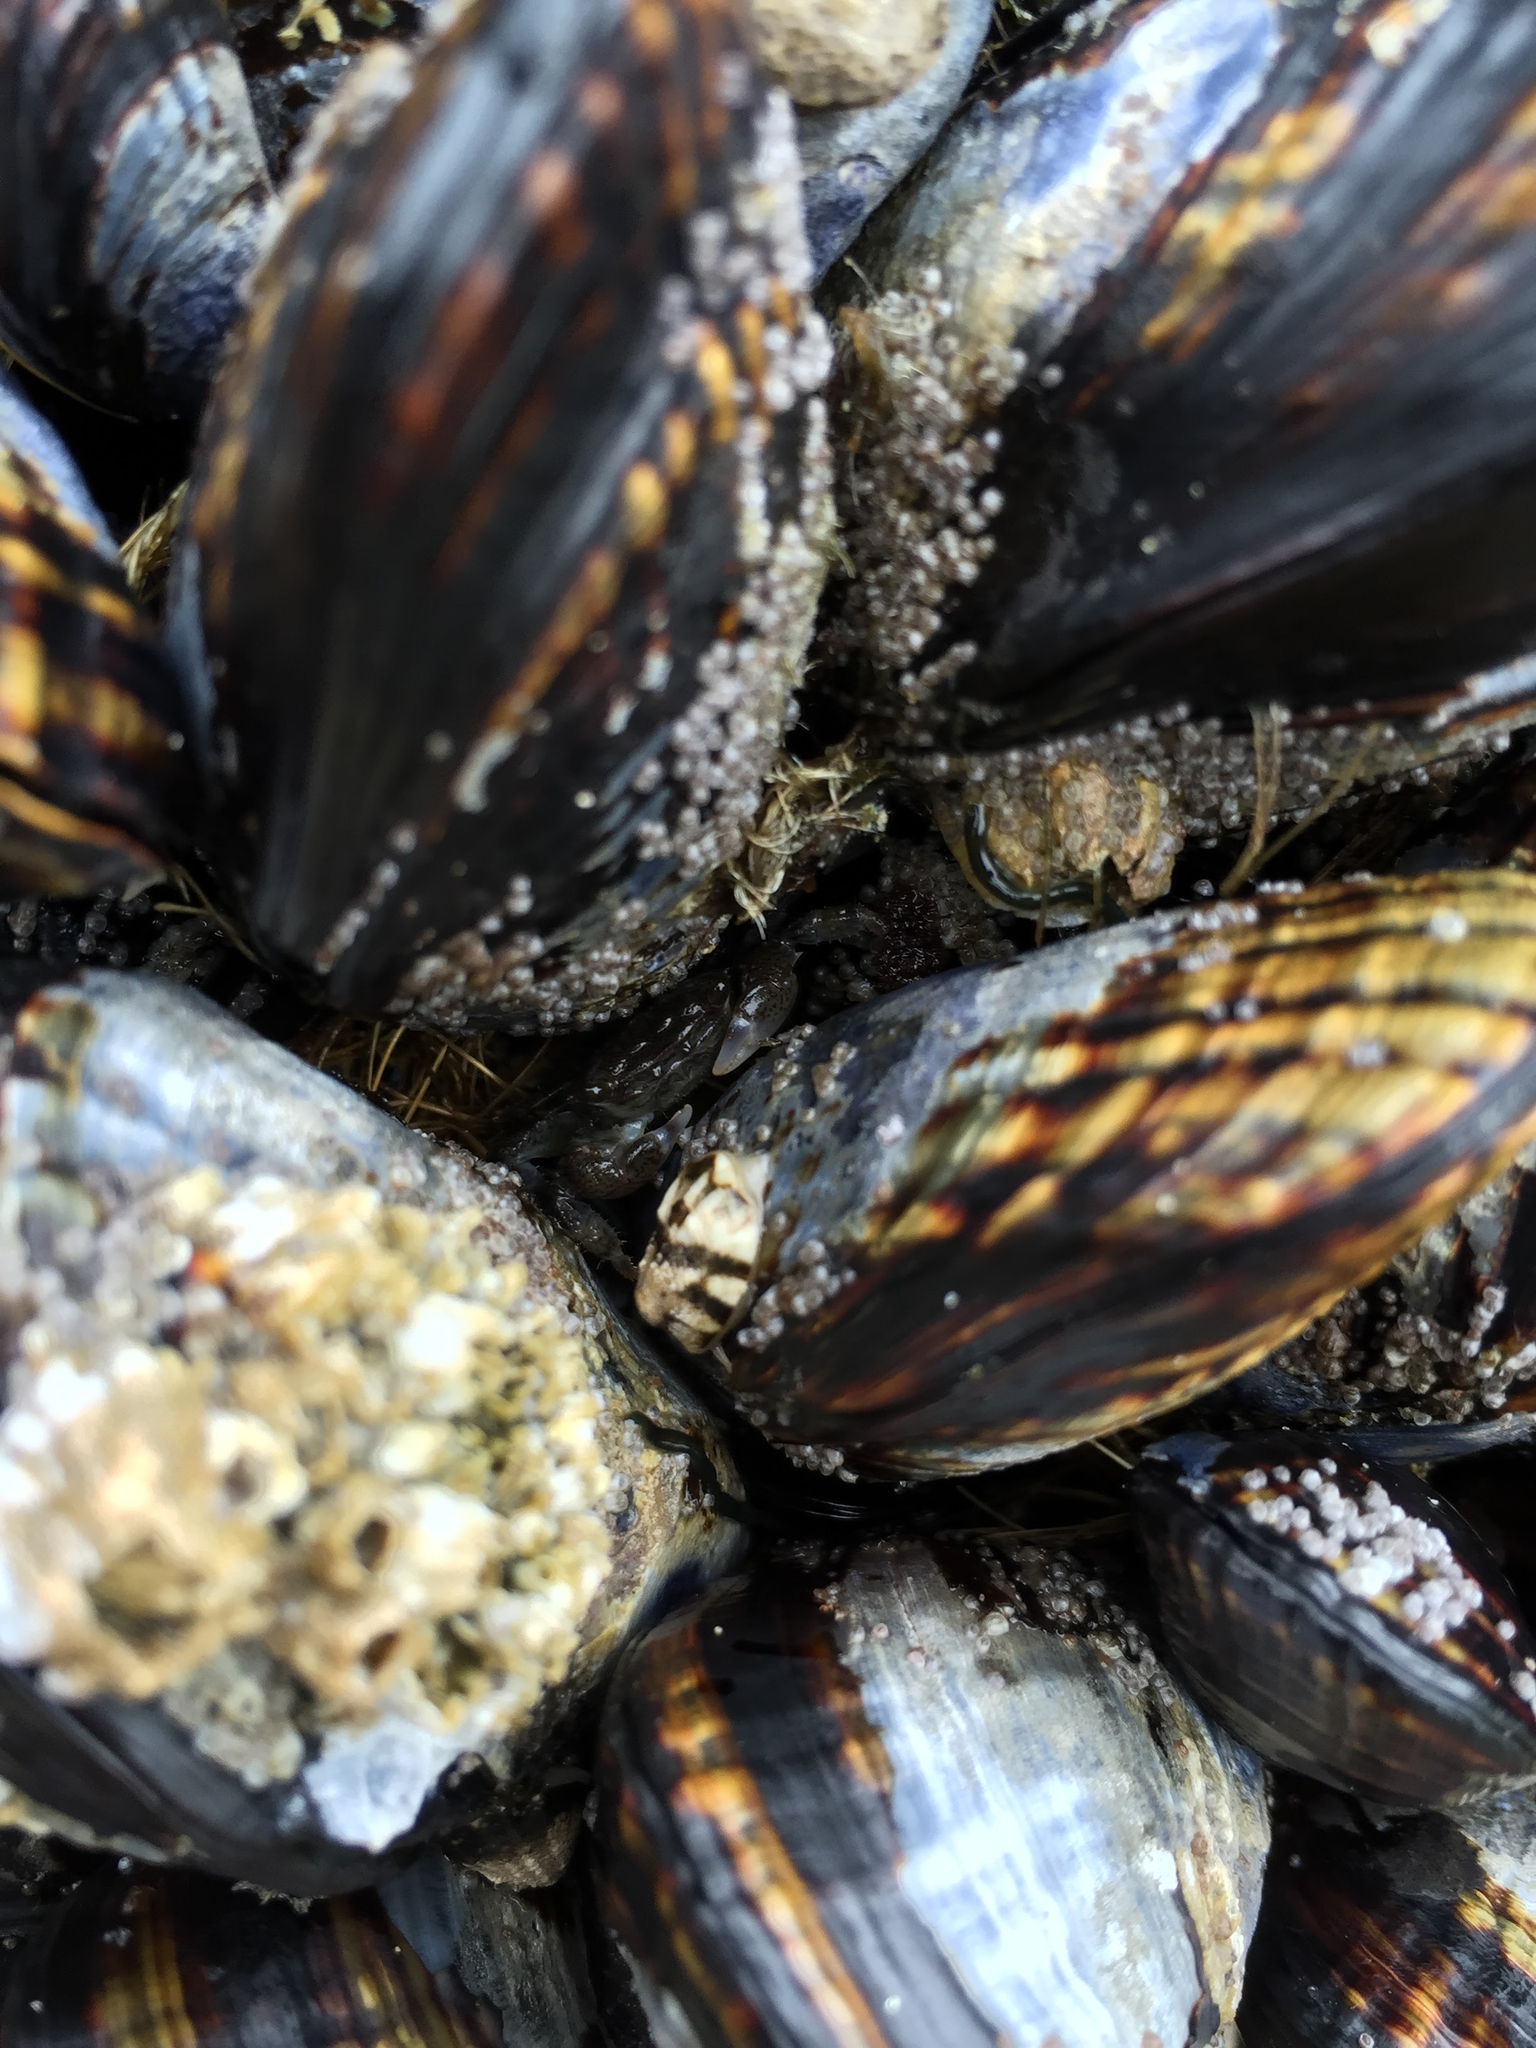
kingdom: Animalia
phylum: Mollusca
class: Bivalvia
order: Mytilida
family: Mytilidae
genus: Mytilus
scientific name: Mytilus californianus
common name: California mussel
